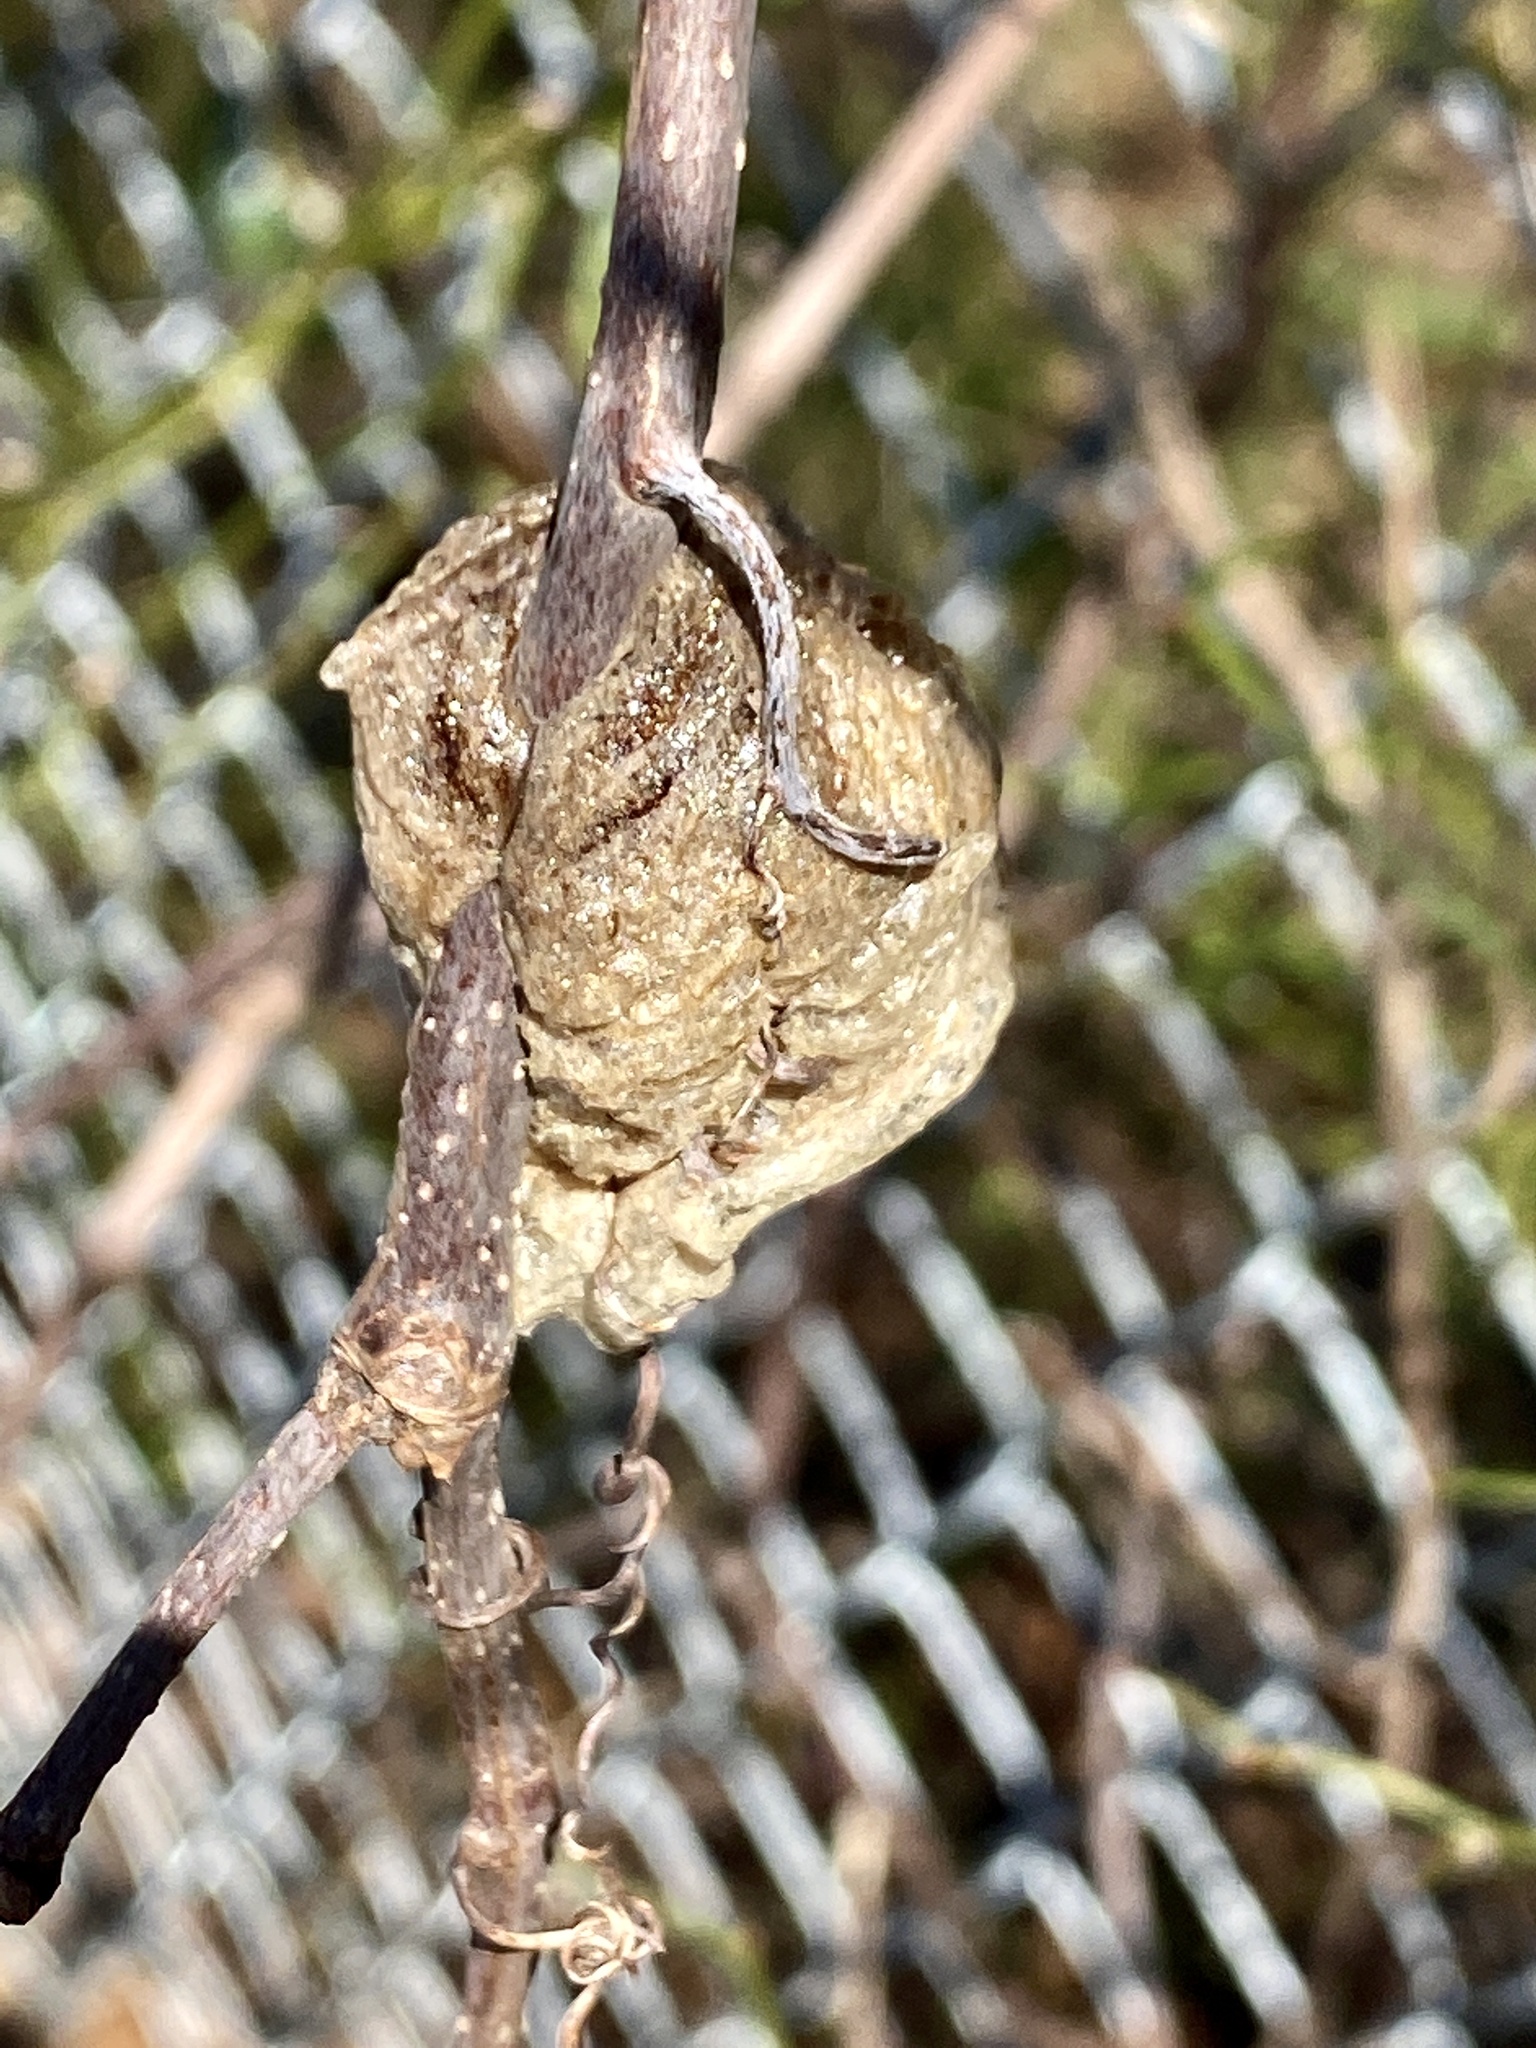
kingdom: Animalia
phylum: Arthropoda
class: Insecta
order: Mantodea
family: Mantidae
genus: Tenodera
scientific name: Tenodera sinensis
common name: Chinese mantis
